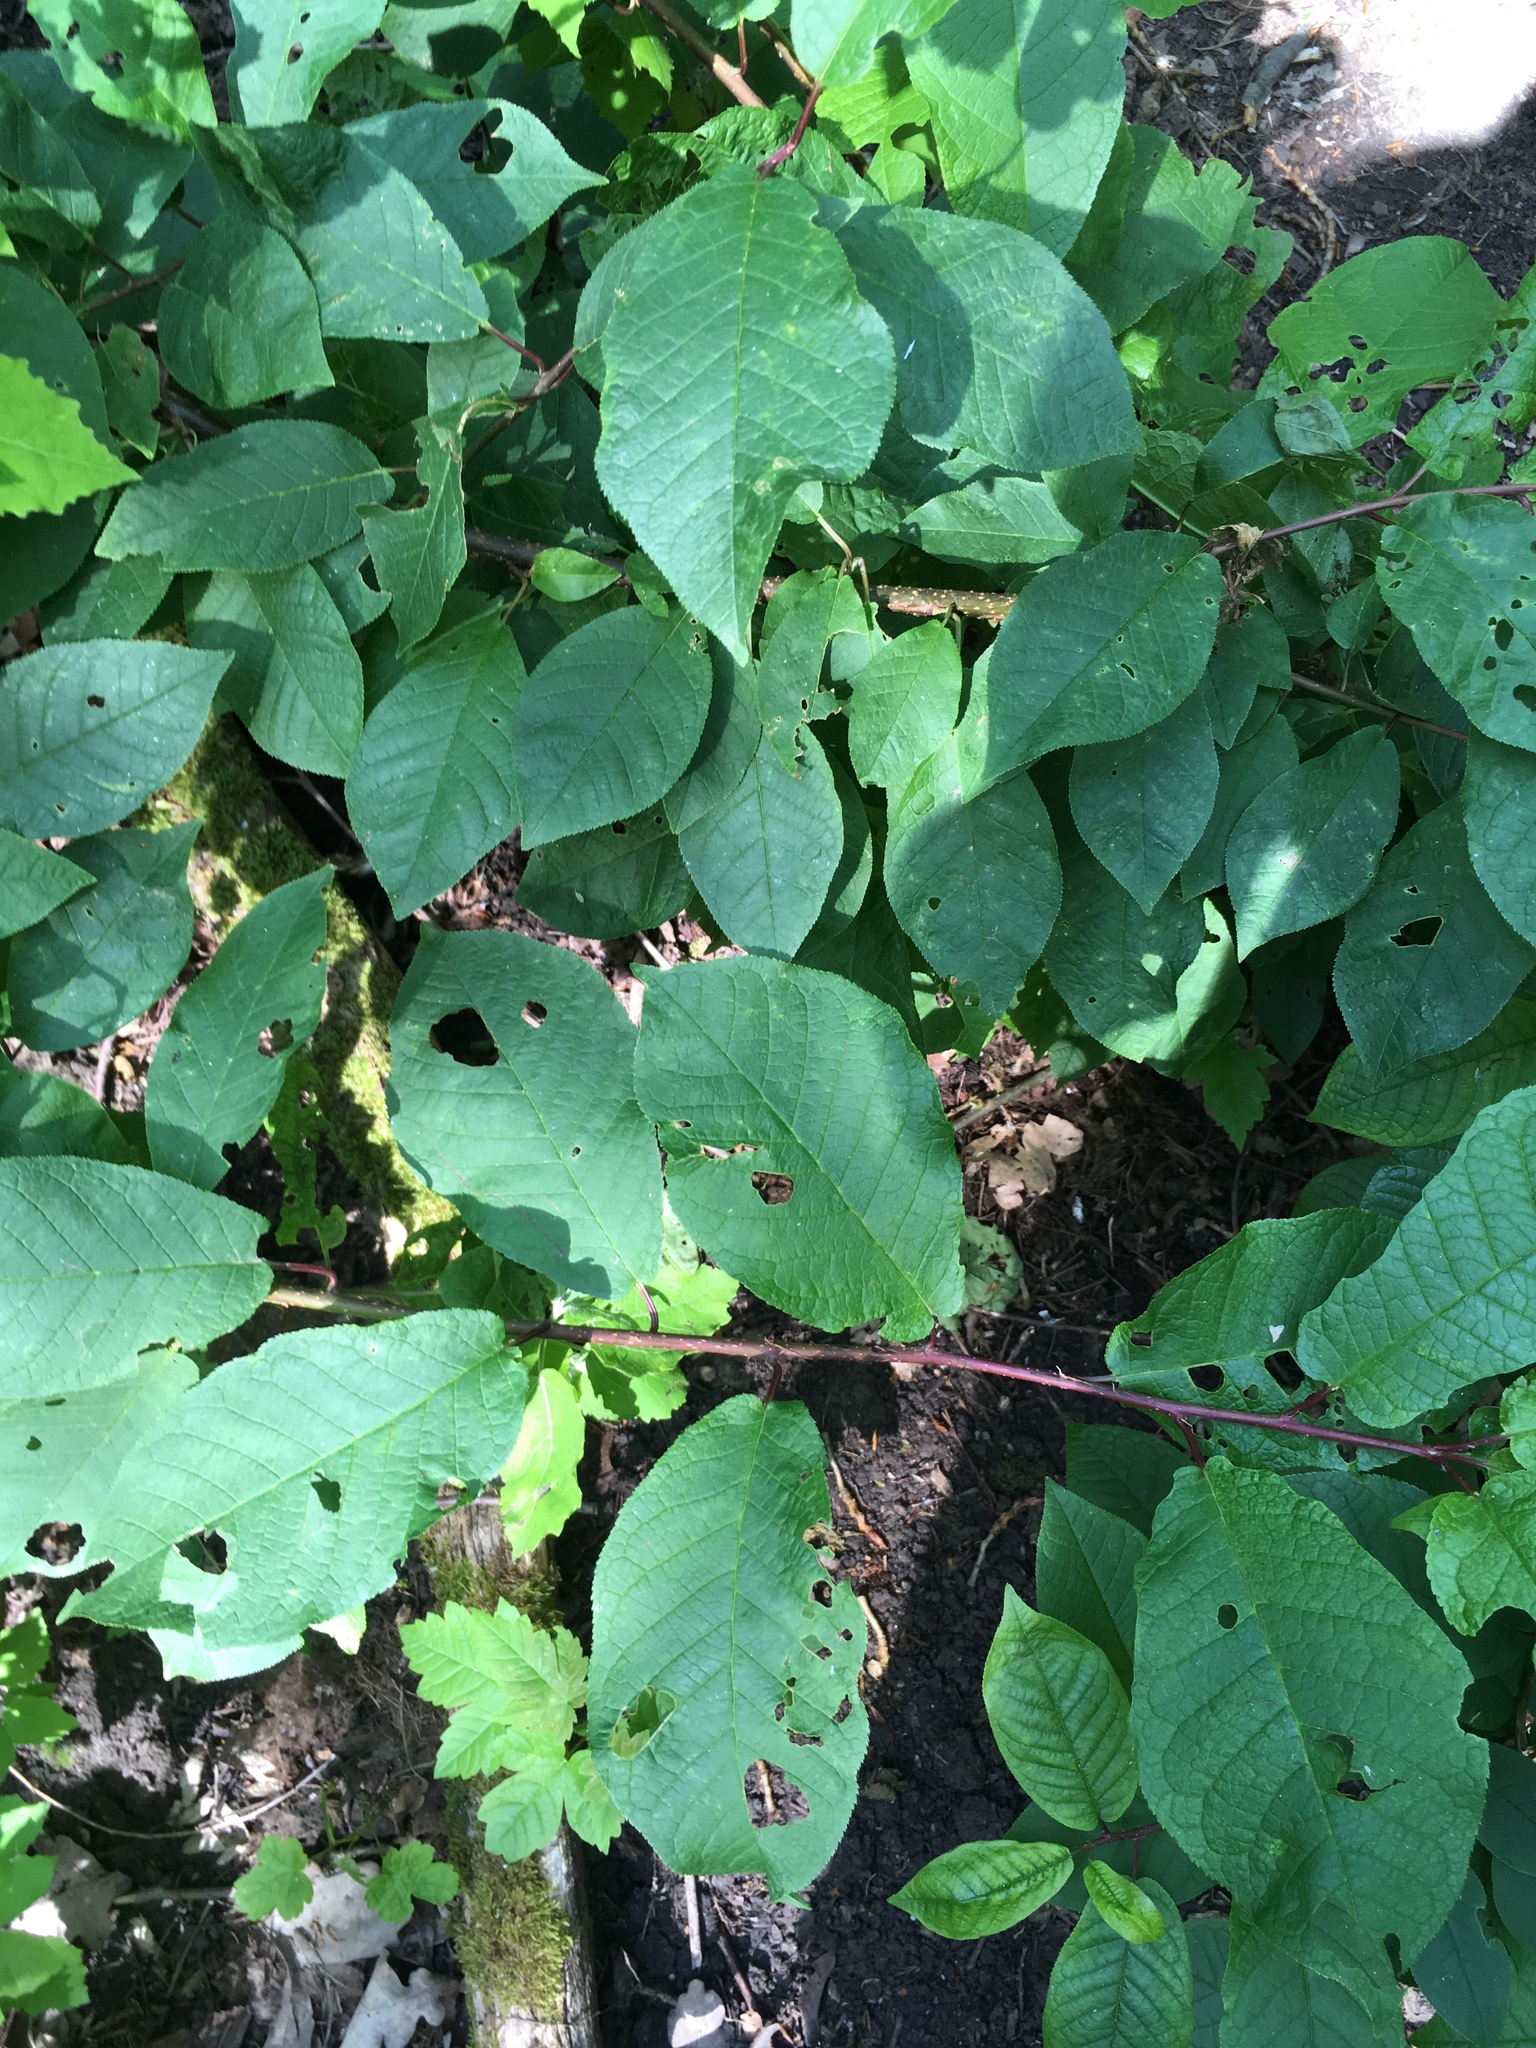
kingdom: Plantae
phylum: Tracheophyta
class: Magnoliopsida
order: Rosales
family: Rosaceae
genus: Prunus
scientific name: Prunus padus
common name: Bird cherry
